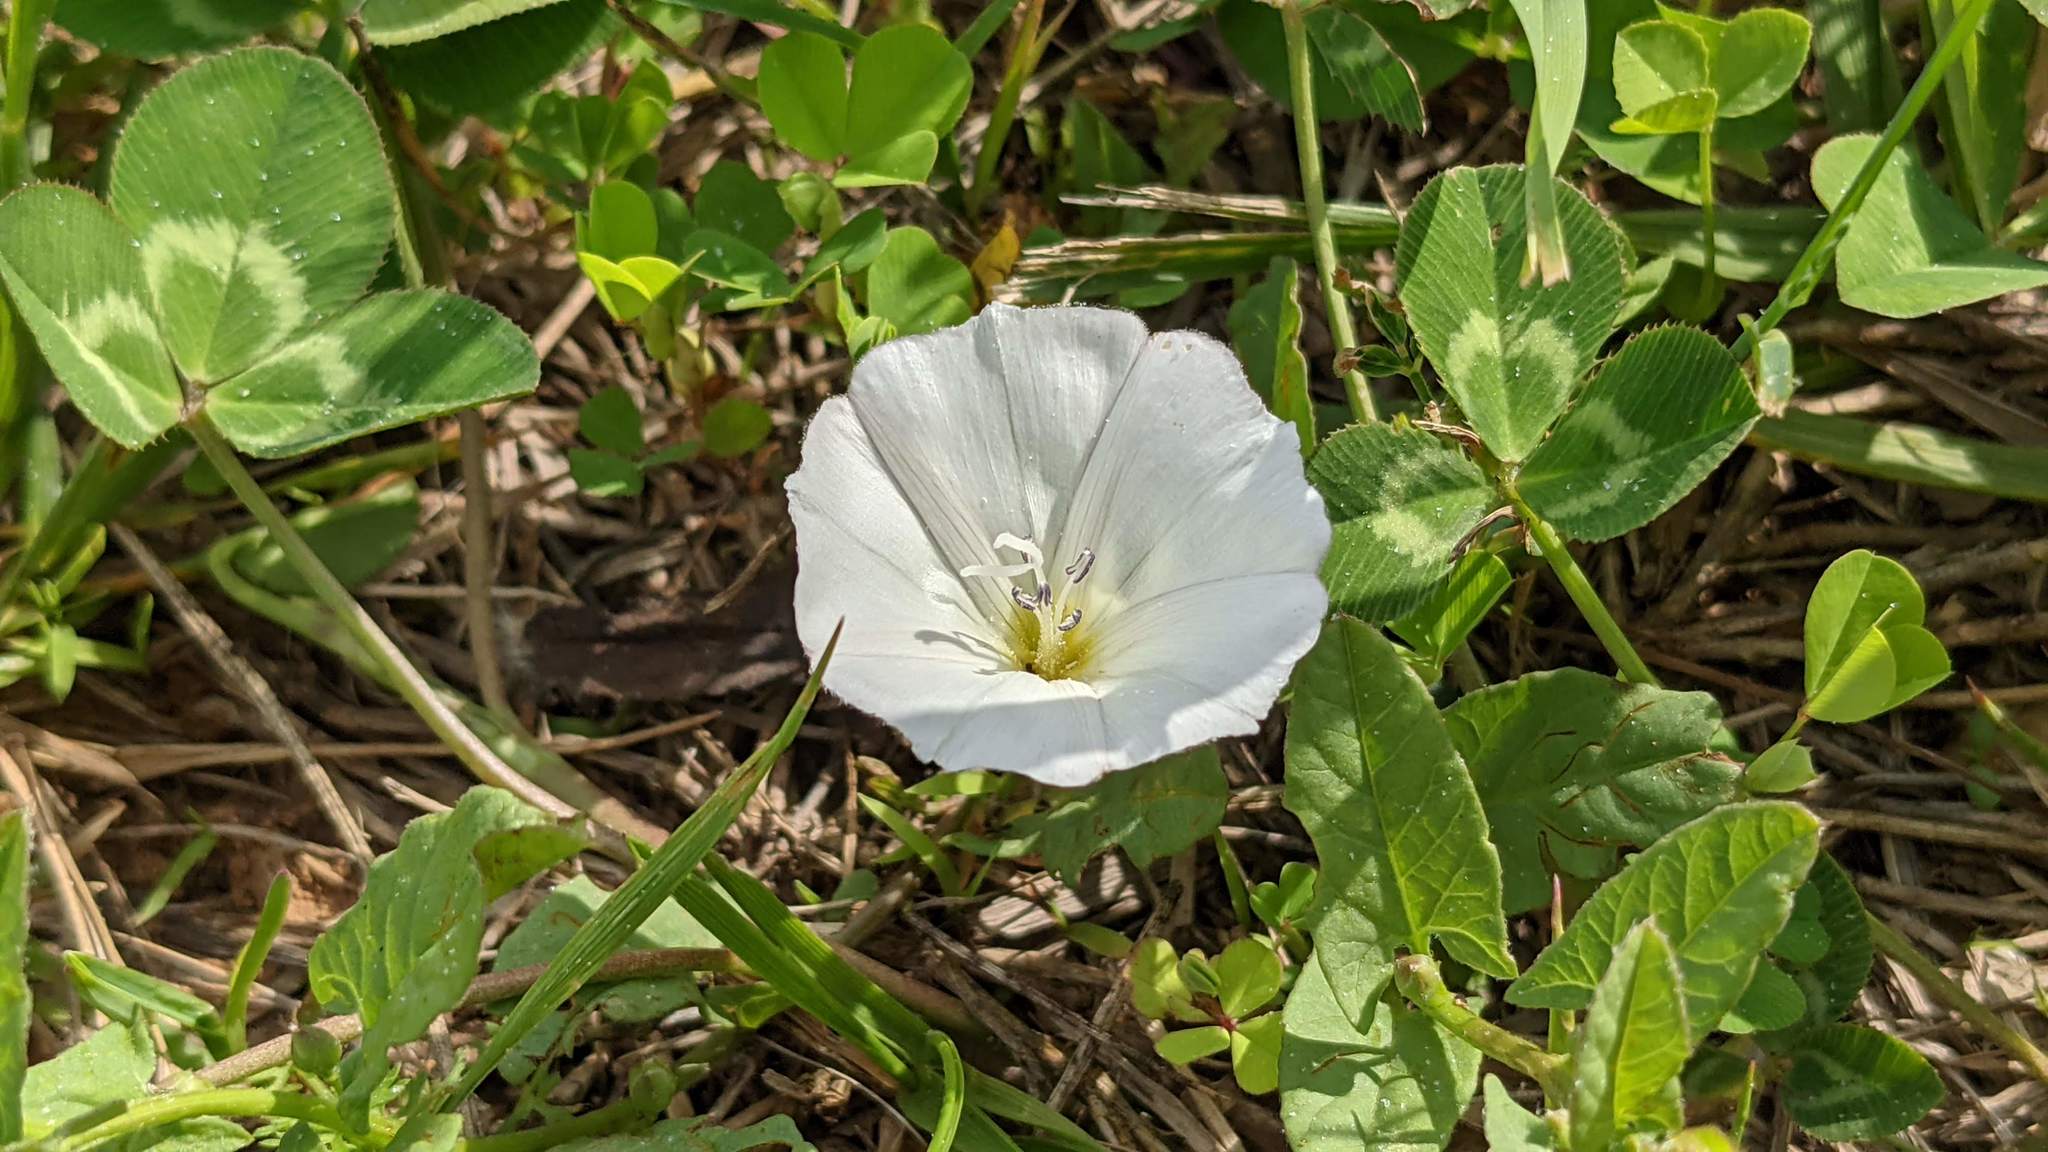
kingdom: Plantae
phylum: Tracheophyta
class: Magnoliopsida
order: Solanales
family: Convolvulaceae
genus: Convolvulus
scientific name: Convolvulus arvensis
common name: Field bindweed
